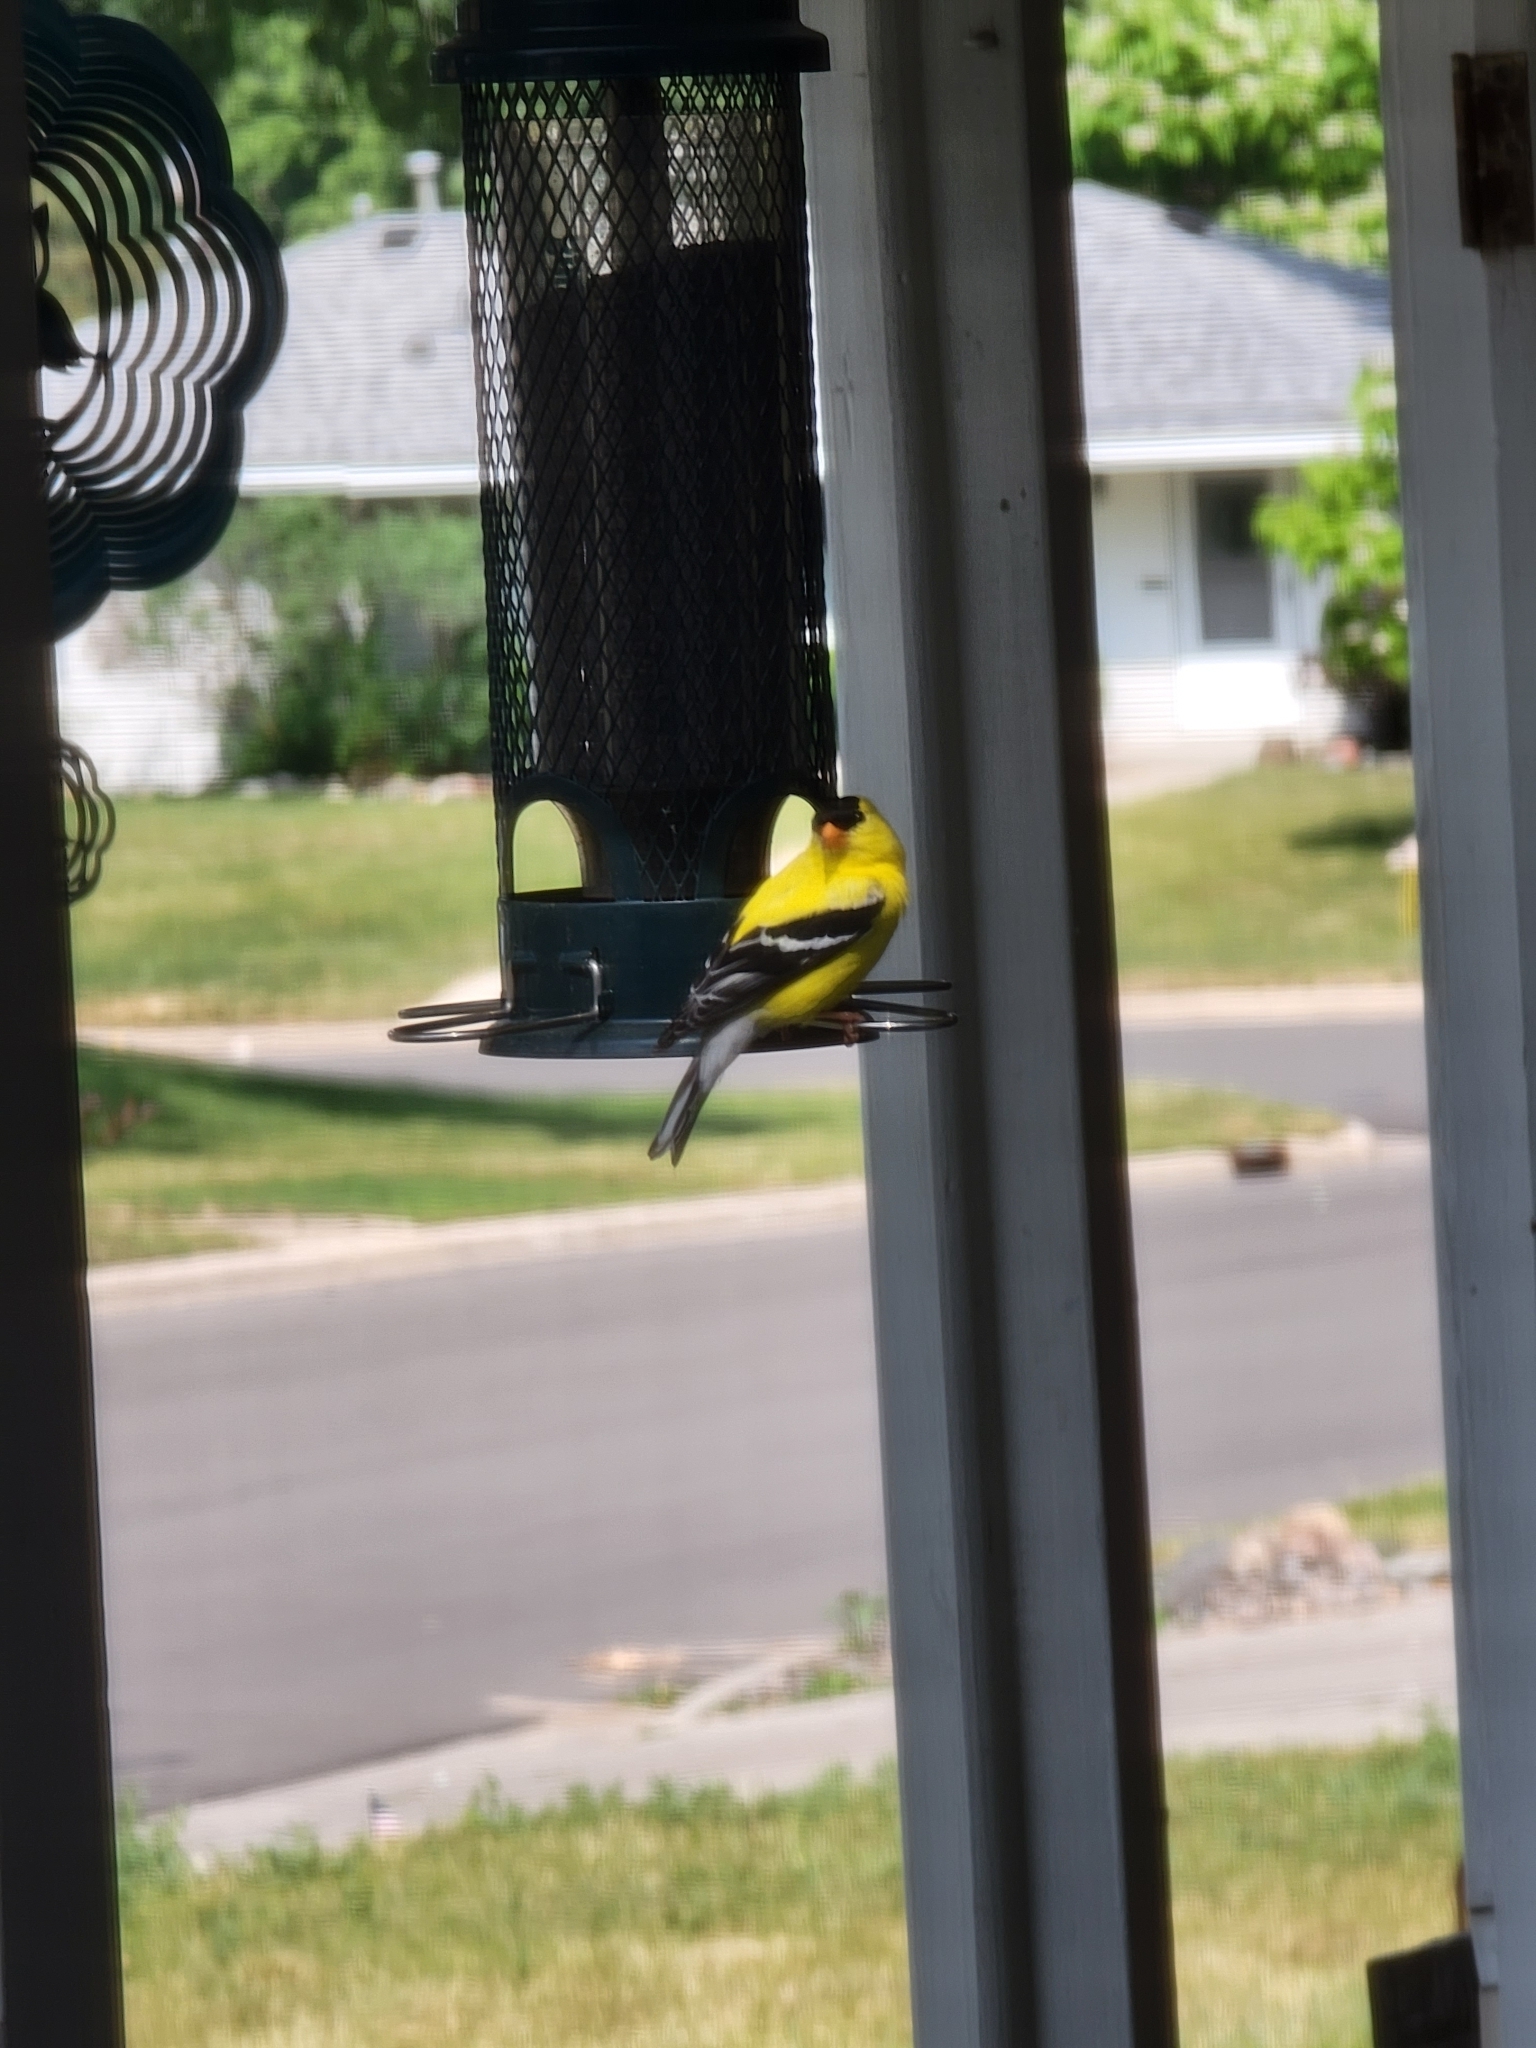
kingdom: Animalia
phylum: Chordata
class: Aves
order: Passeriformes
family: Fringillidae
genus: Spinus
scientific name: Spinus tristis
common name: American goldfinch
